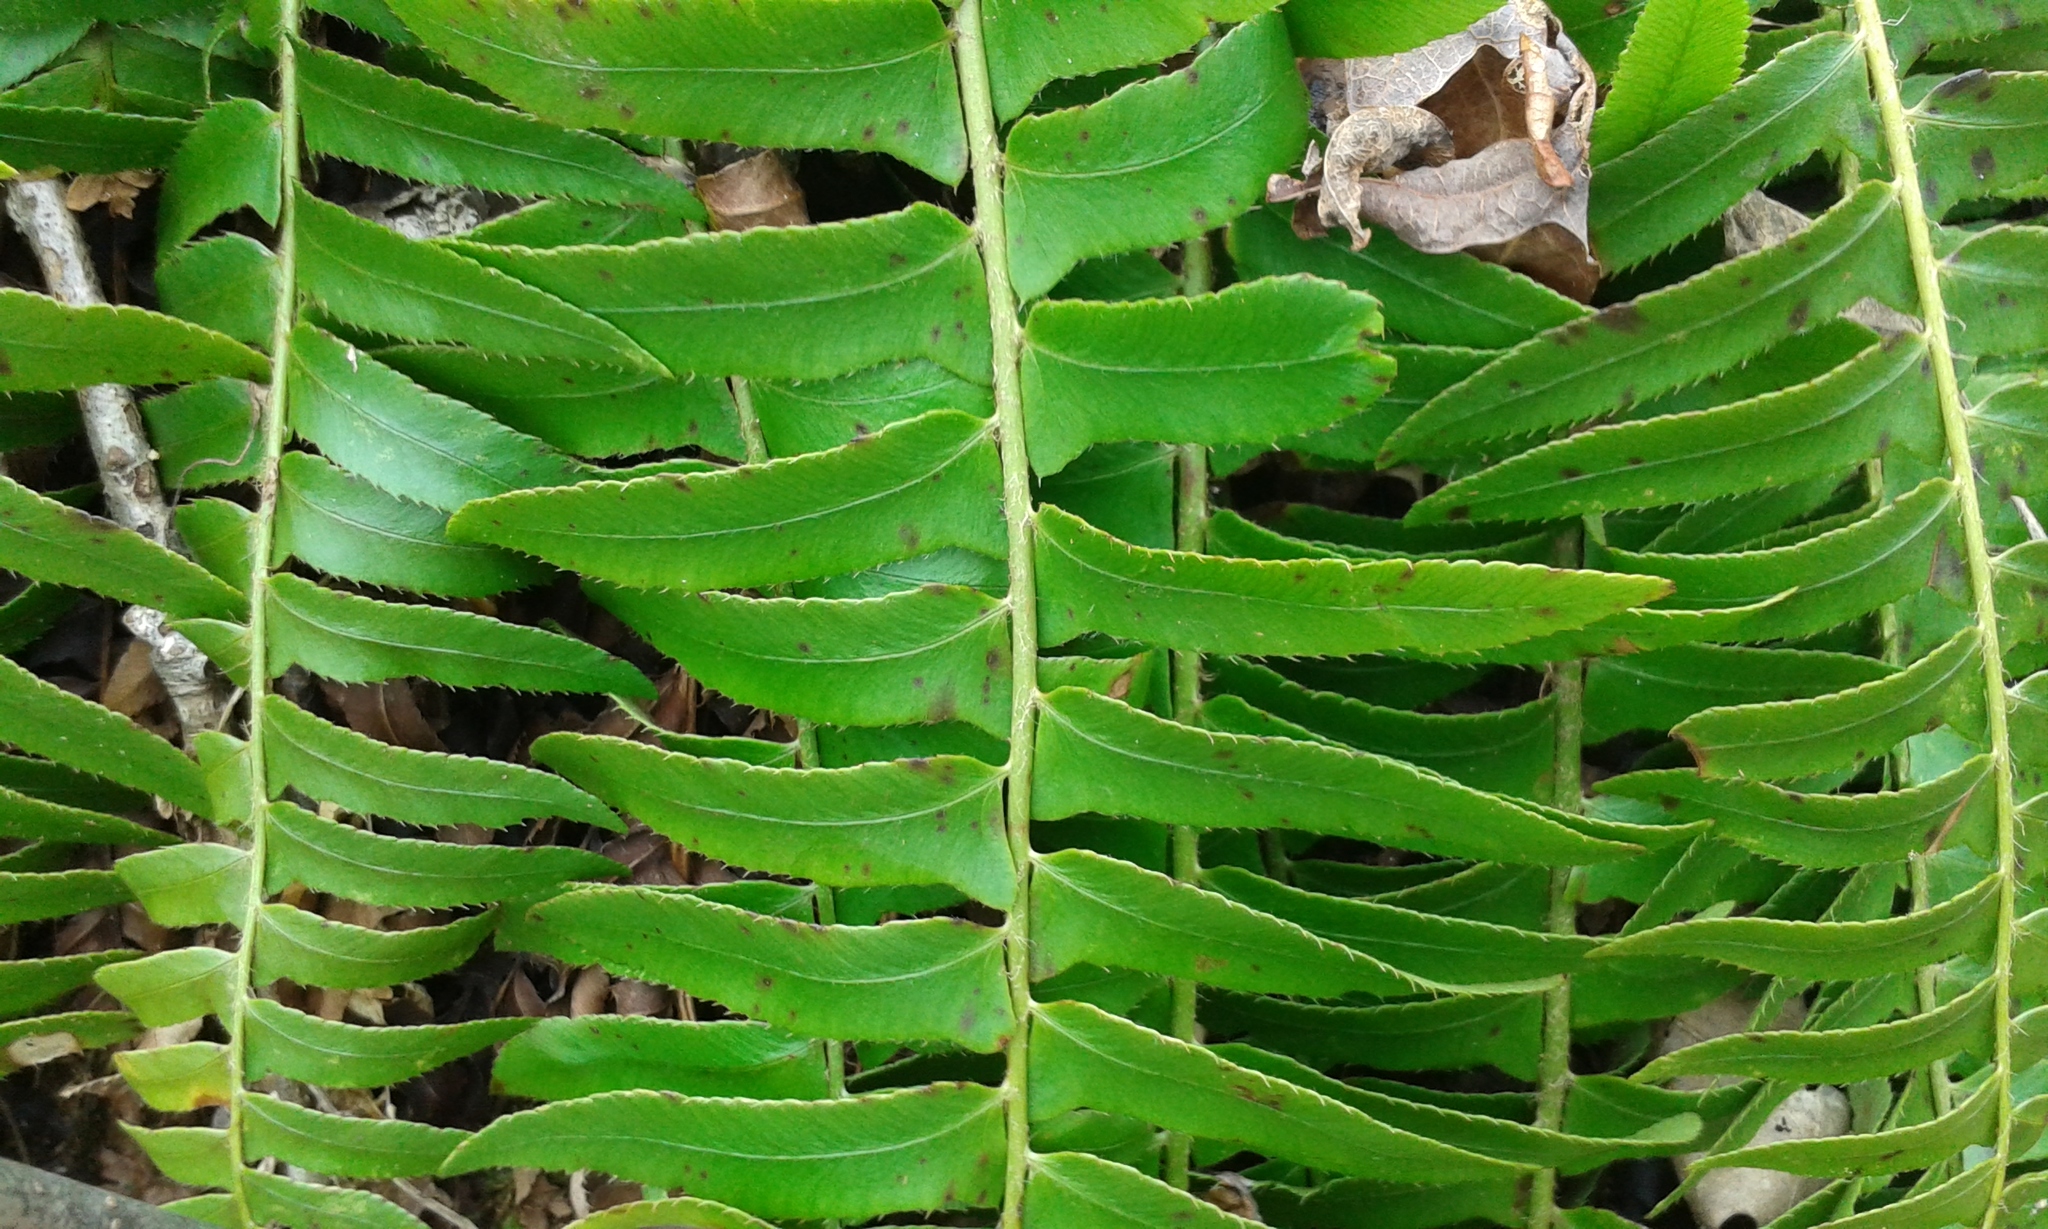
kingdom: Plantae
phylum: Tracheophyta
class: Polypodiopsida
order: Polypodiales
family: Dryopteridaceae
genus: Polystichum
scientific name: Polystichum acrostichoides
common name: Christmas fern
